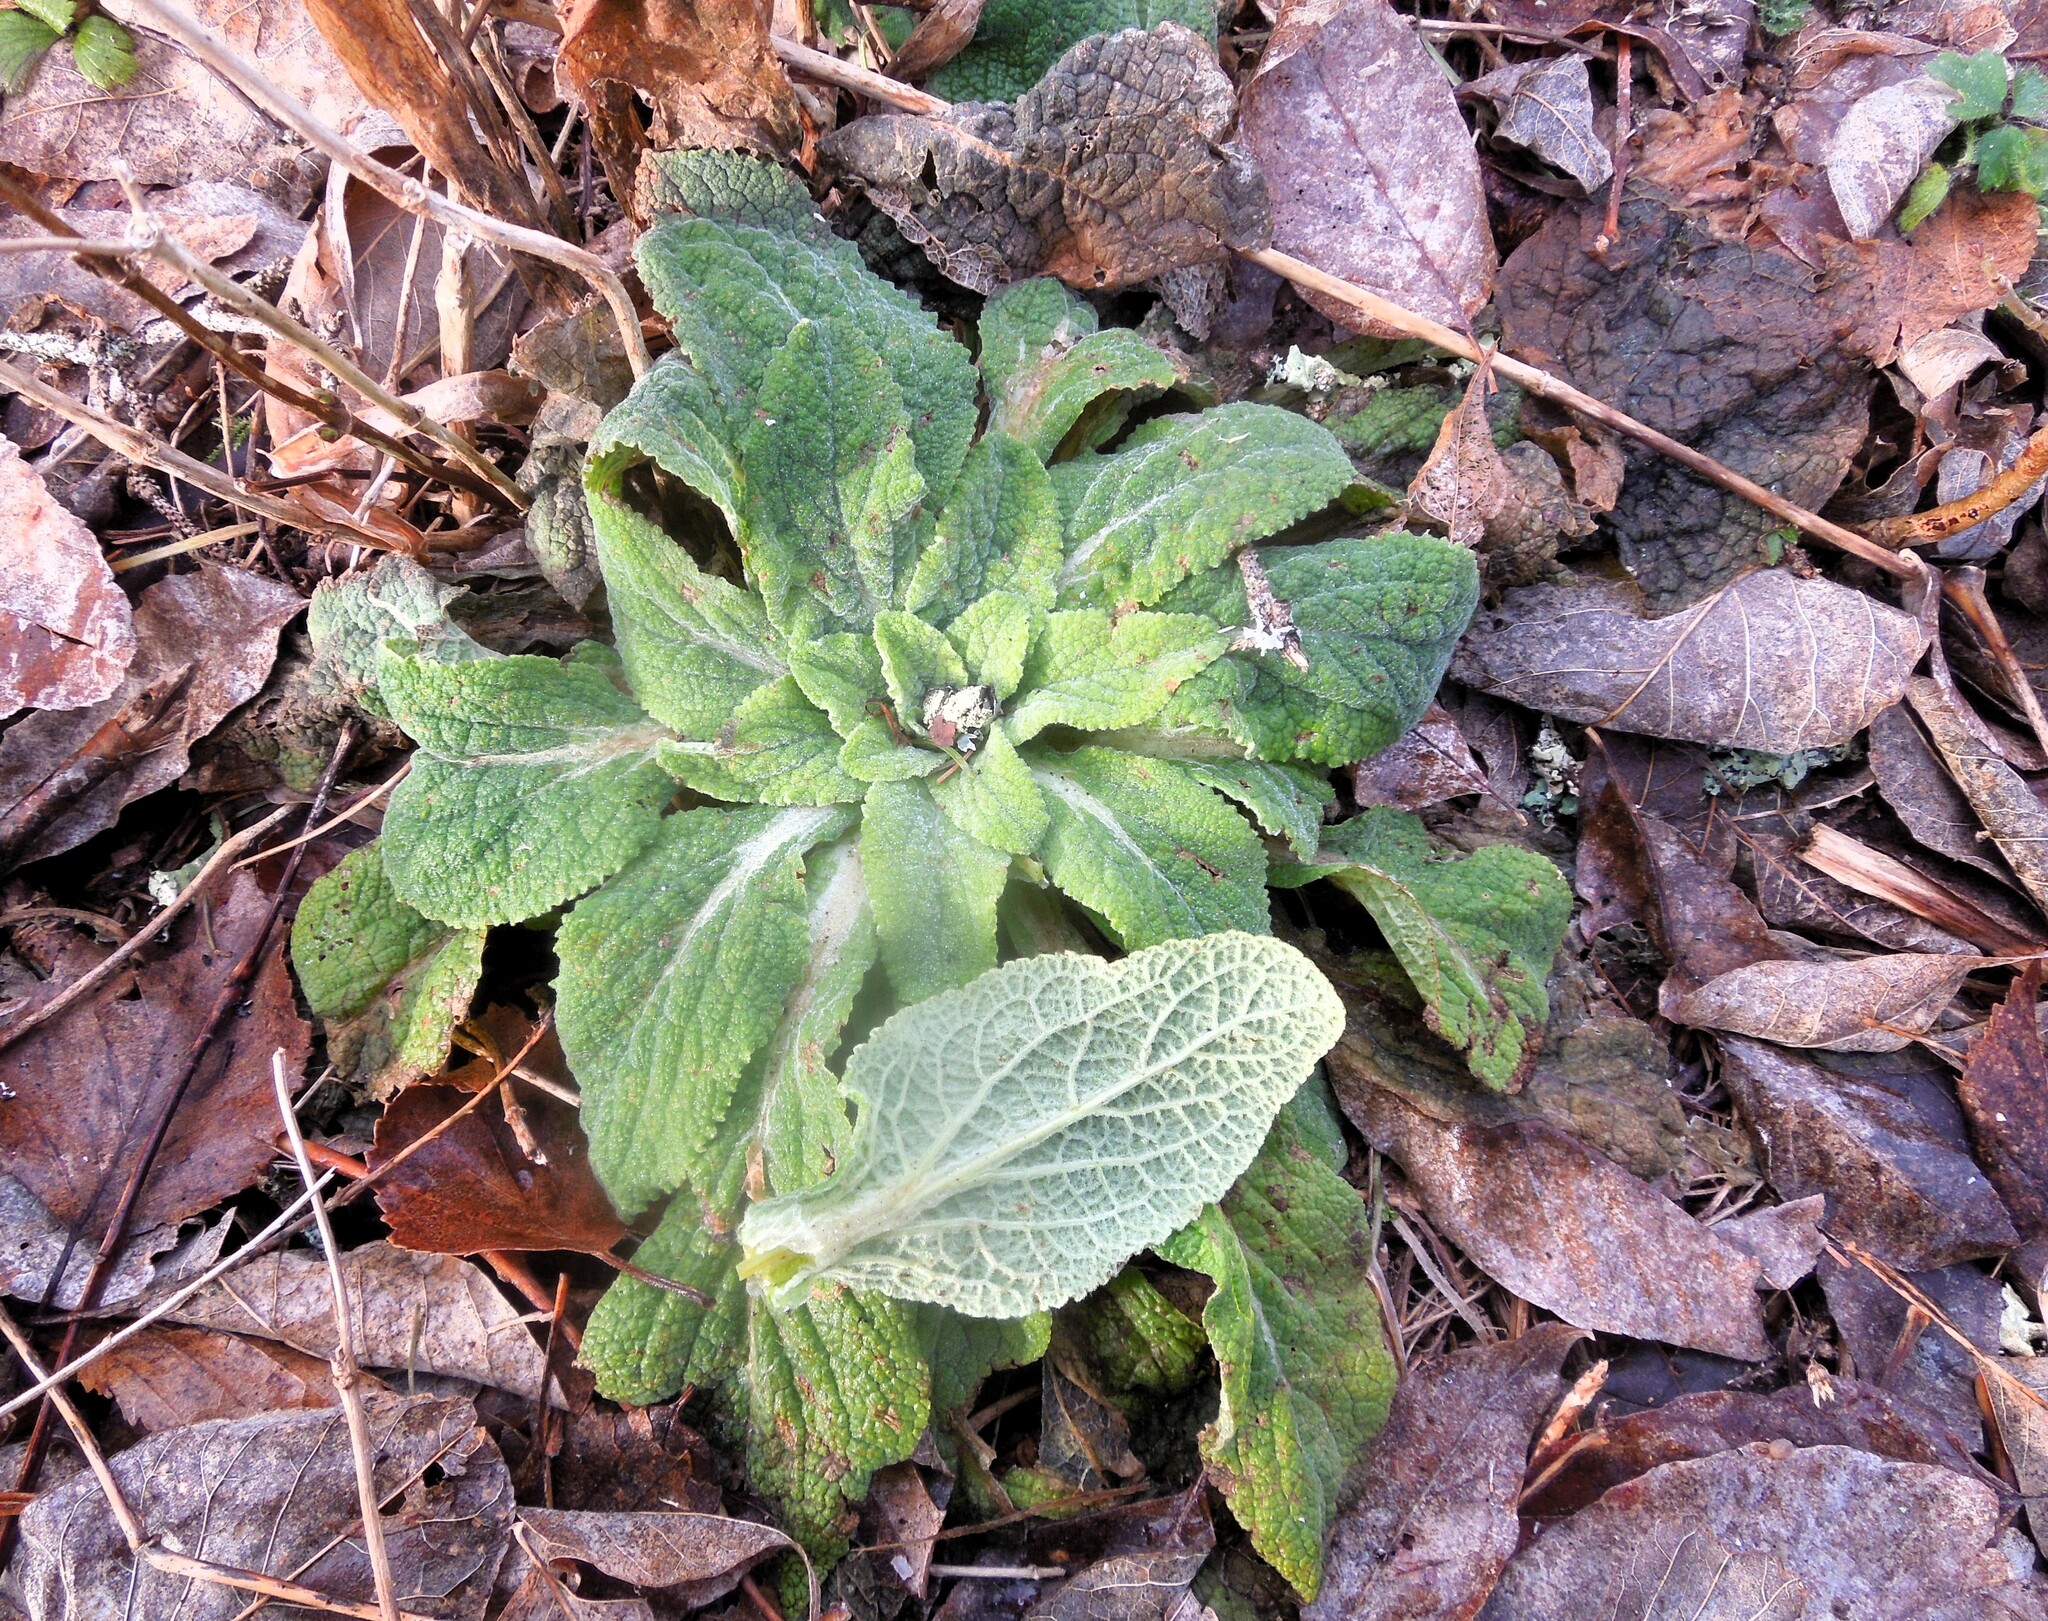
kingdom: Plantae
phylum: Tracheophyta
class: Magnoliopsida
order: Lamiales
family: Plantaginaceae
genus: Digitalis
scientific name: Digitalis purpurea
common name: Foxglove
